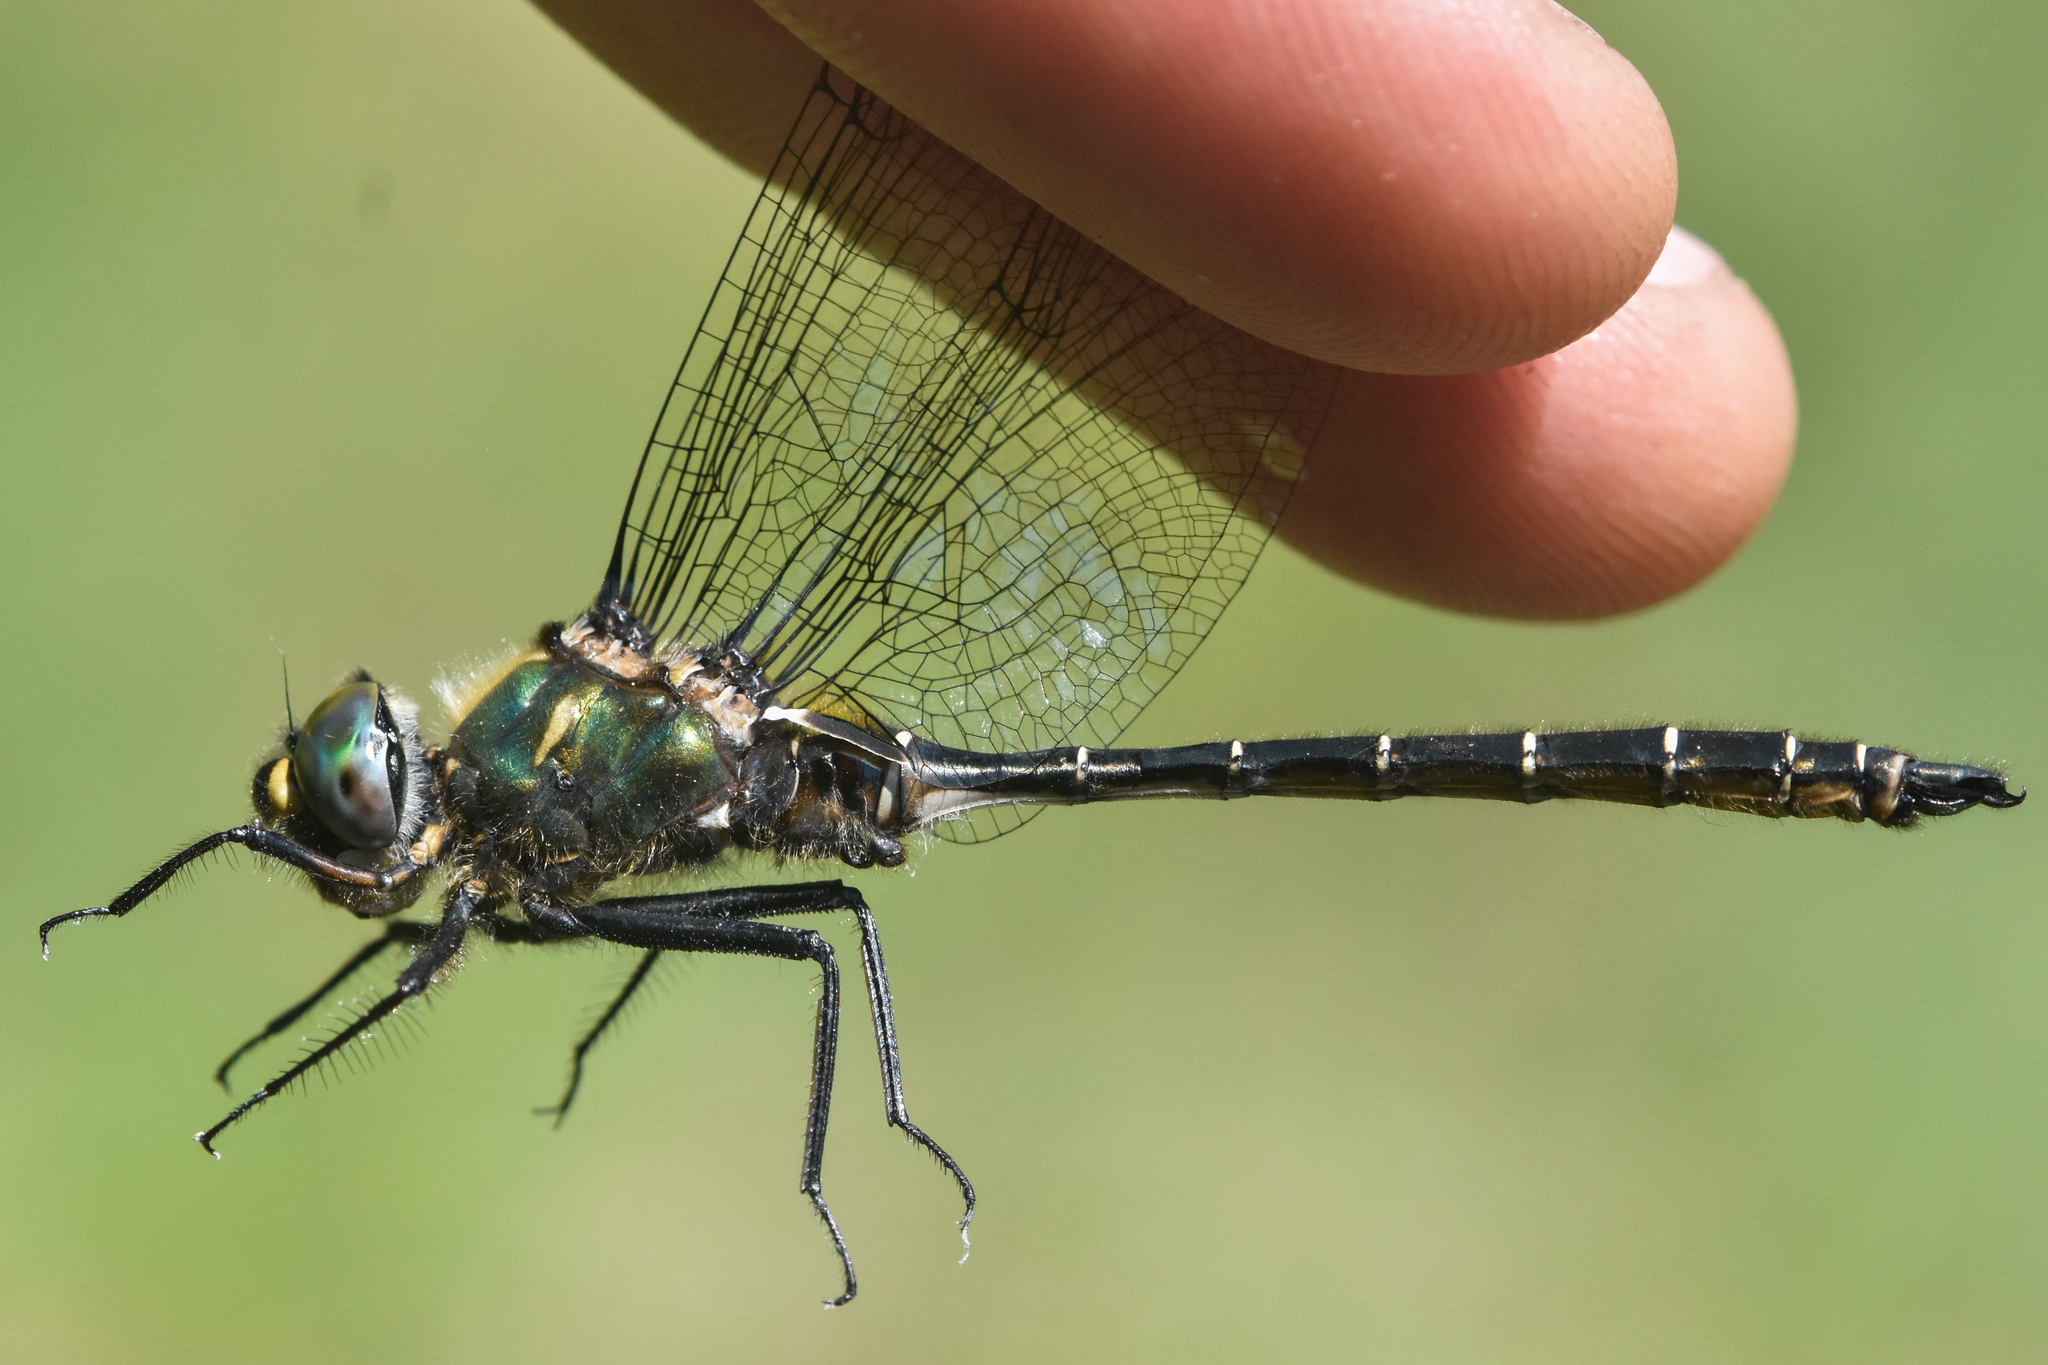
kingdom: Animalia
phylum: Arthropoda
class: Insecta
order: Odonata
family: Corduliidae
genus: Somatochlora
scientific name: Somatochlora albicincta
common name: Ringed emerald
